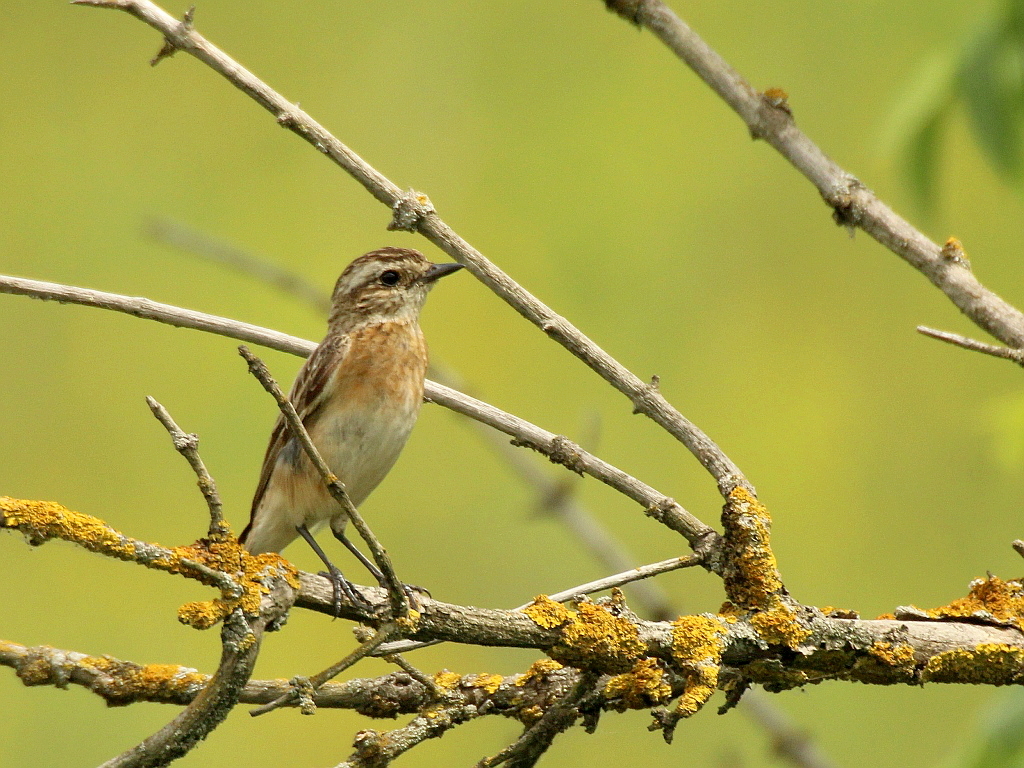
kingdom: Animalia
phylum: Chordata
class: Aves
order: Passeriformes
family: Muscicapidae
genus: Saxicola
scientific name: Saxicola rubetra
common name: Whinchat
